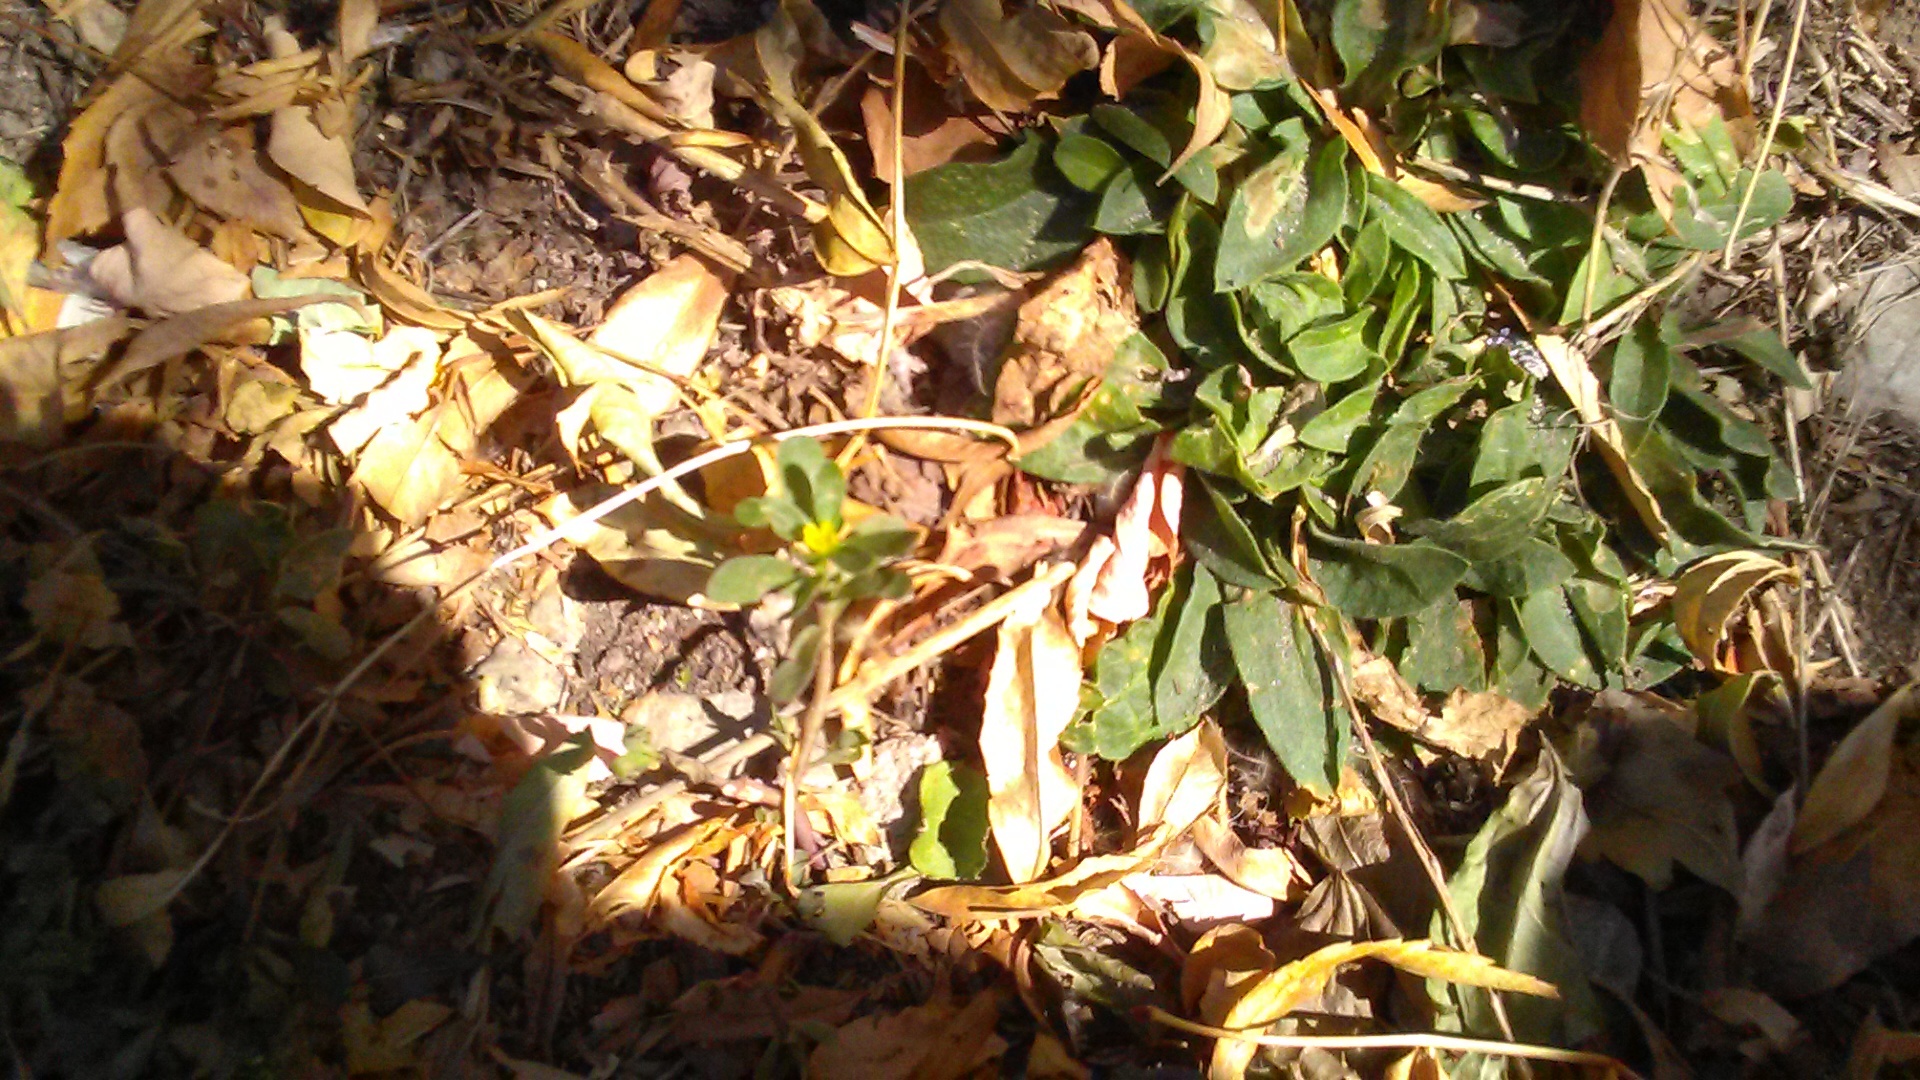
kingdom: Plantae
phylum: Tracheophyta
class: Magnoliopsida
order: Caryophyllales
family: Portulacaceae
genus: Portulaca
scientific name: Portulaca oleracea
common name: Common purslane
